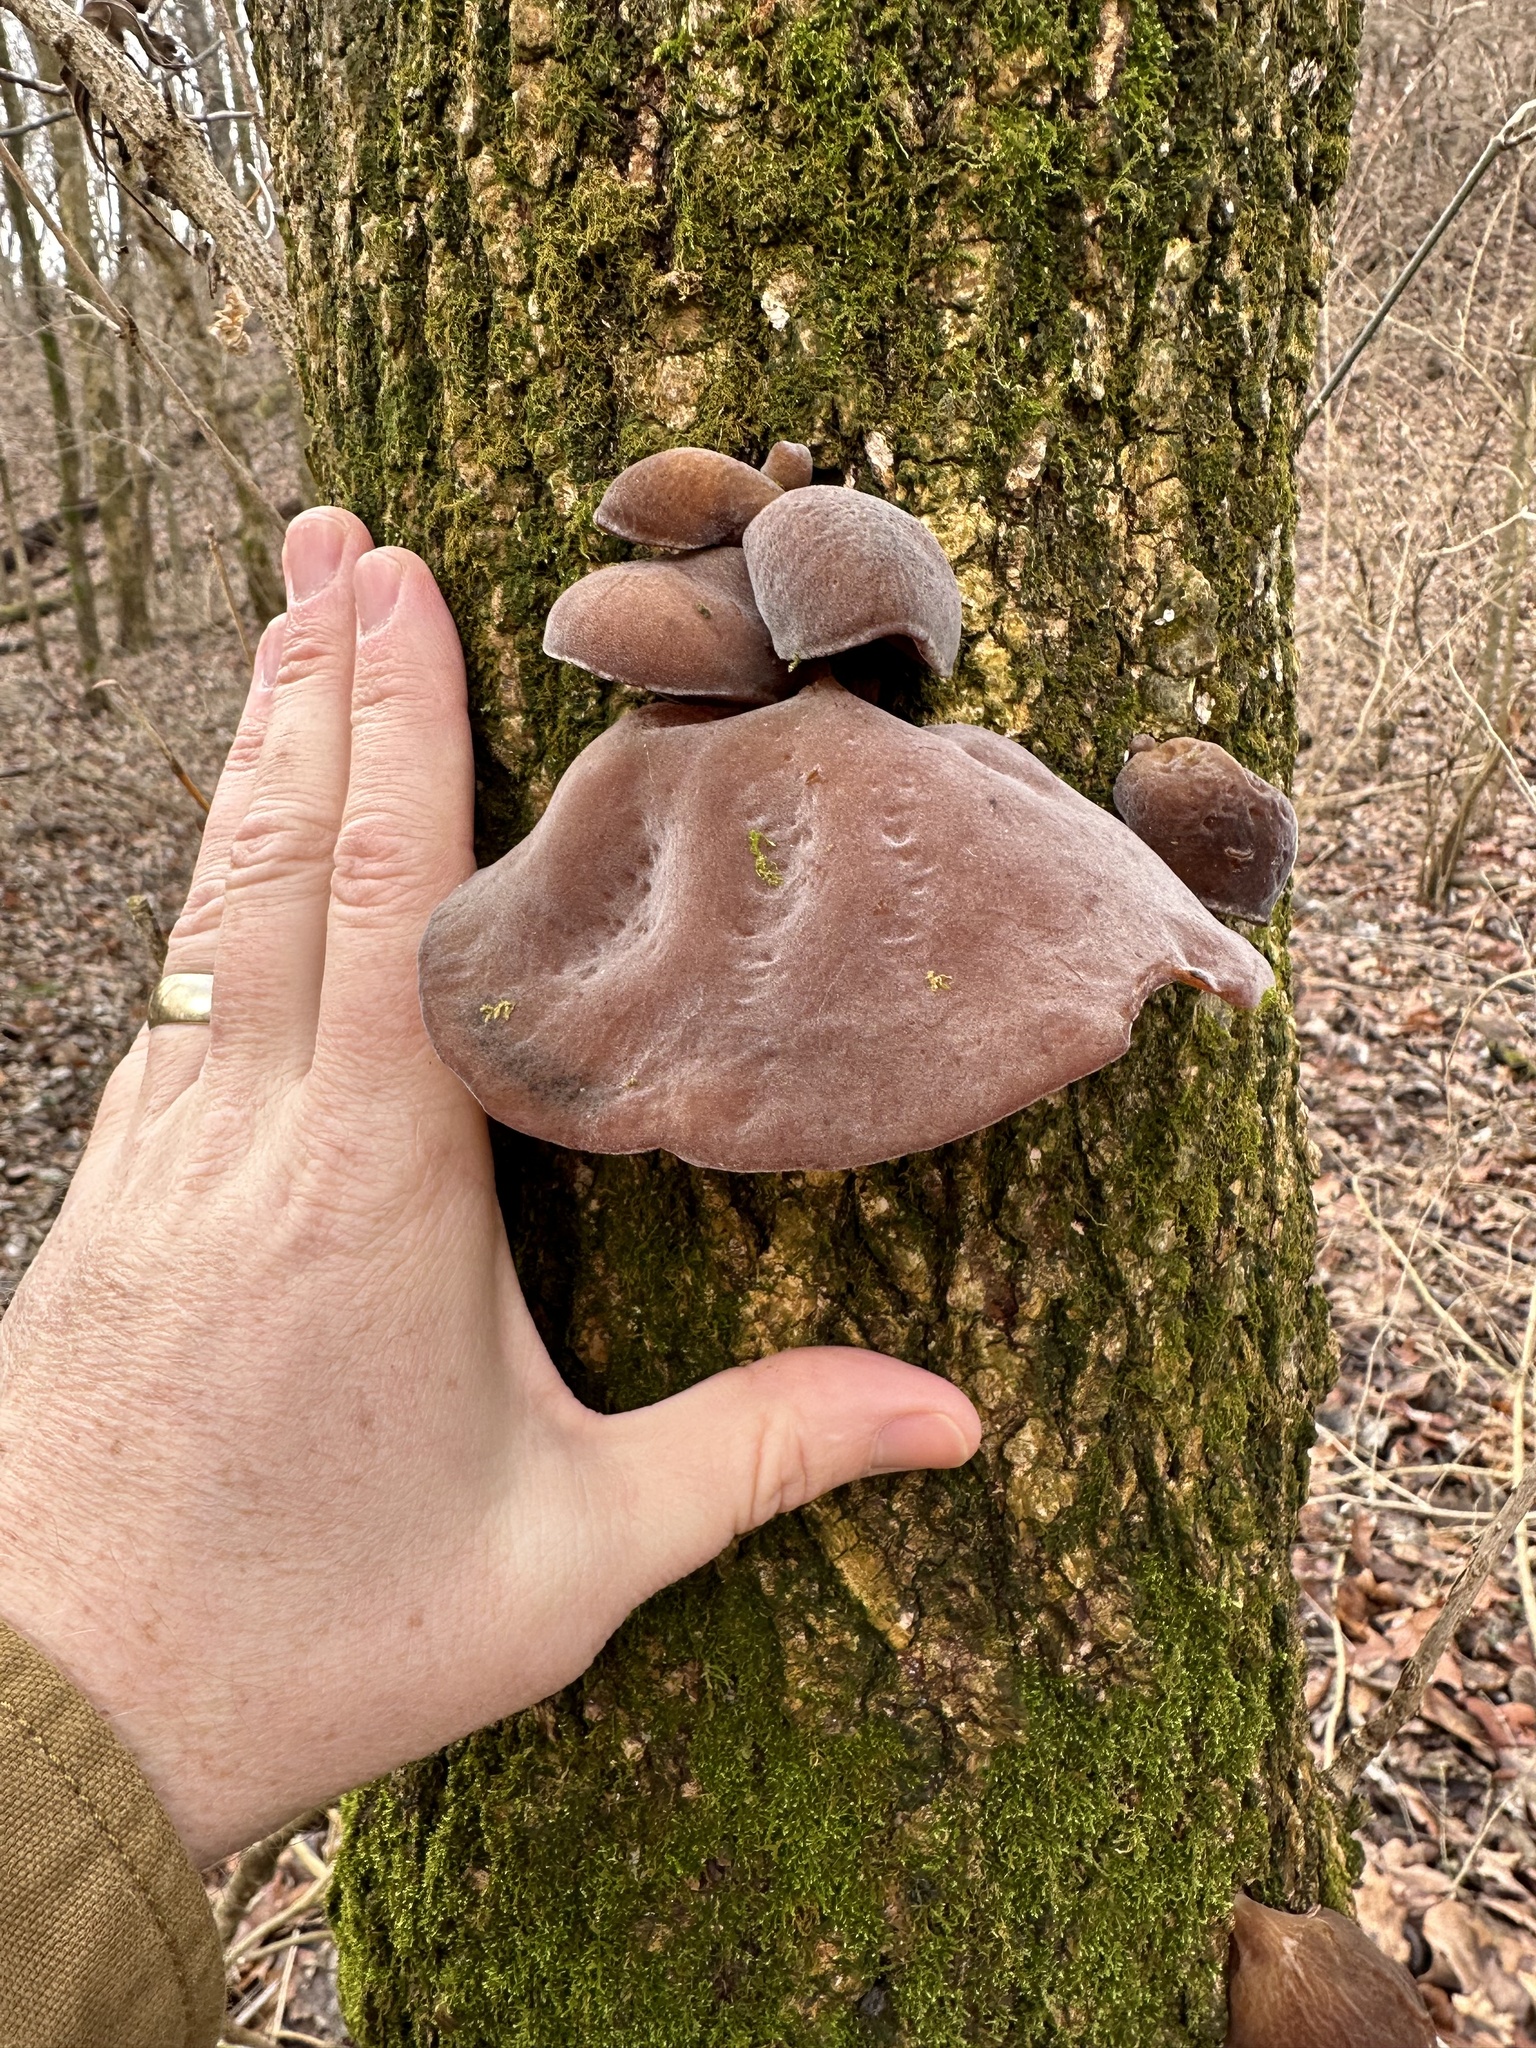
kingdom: Fungi
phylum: Basidiomycota
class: Agaricomycetes
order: Auriculariales
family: Auriculariaceae
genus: Auricularia
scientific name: Auricularia angiospermarum
